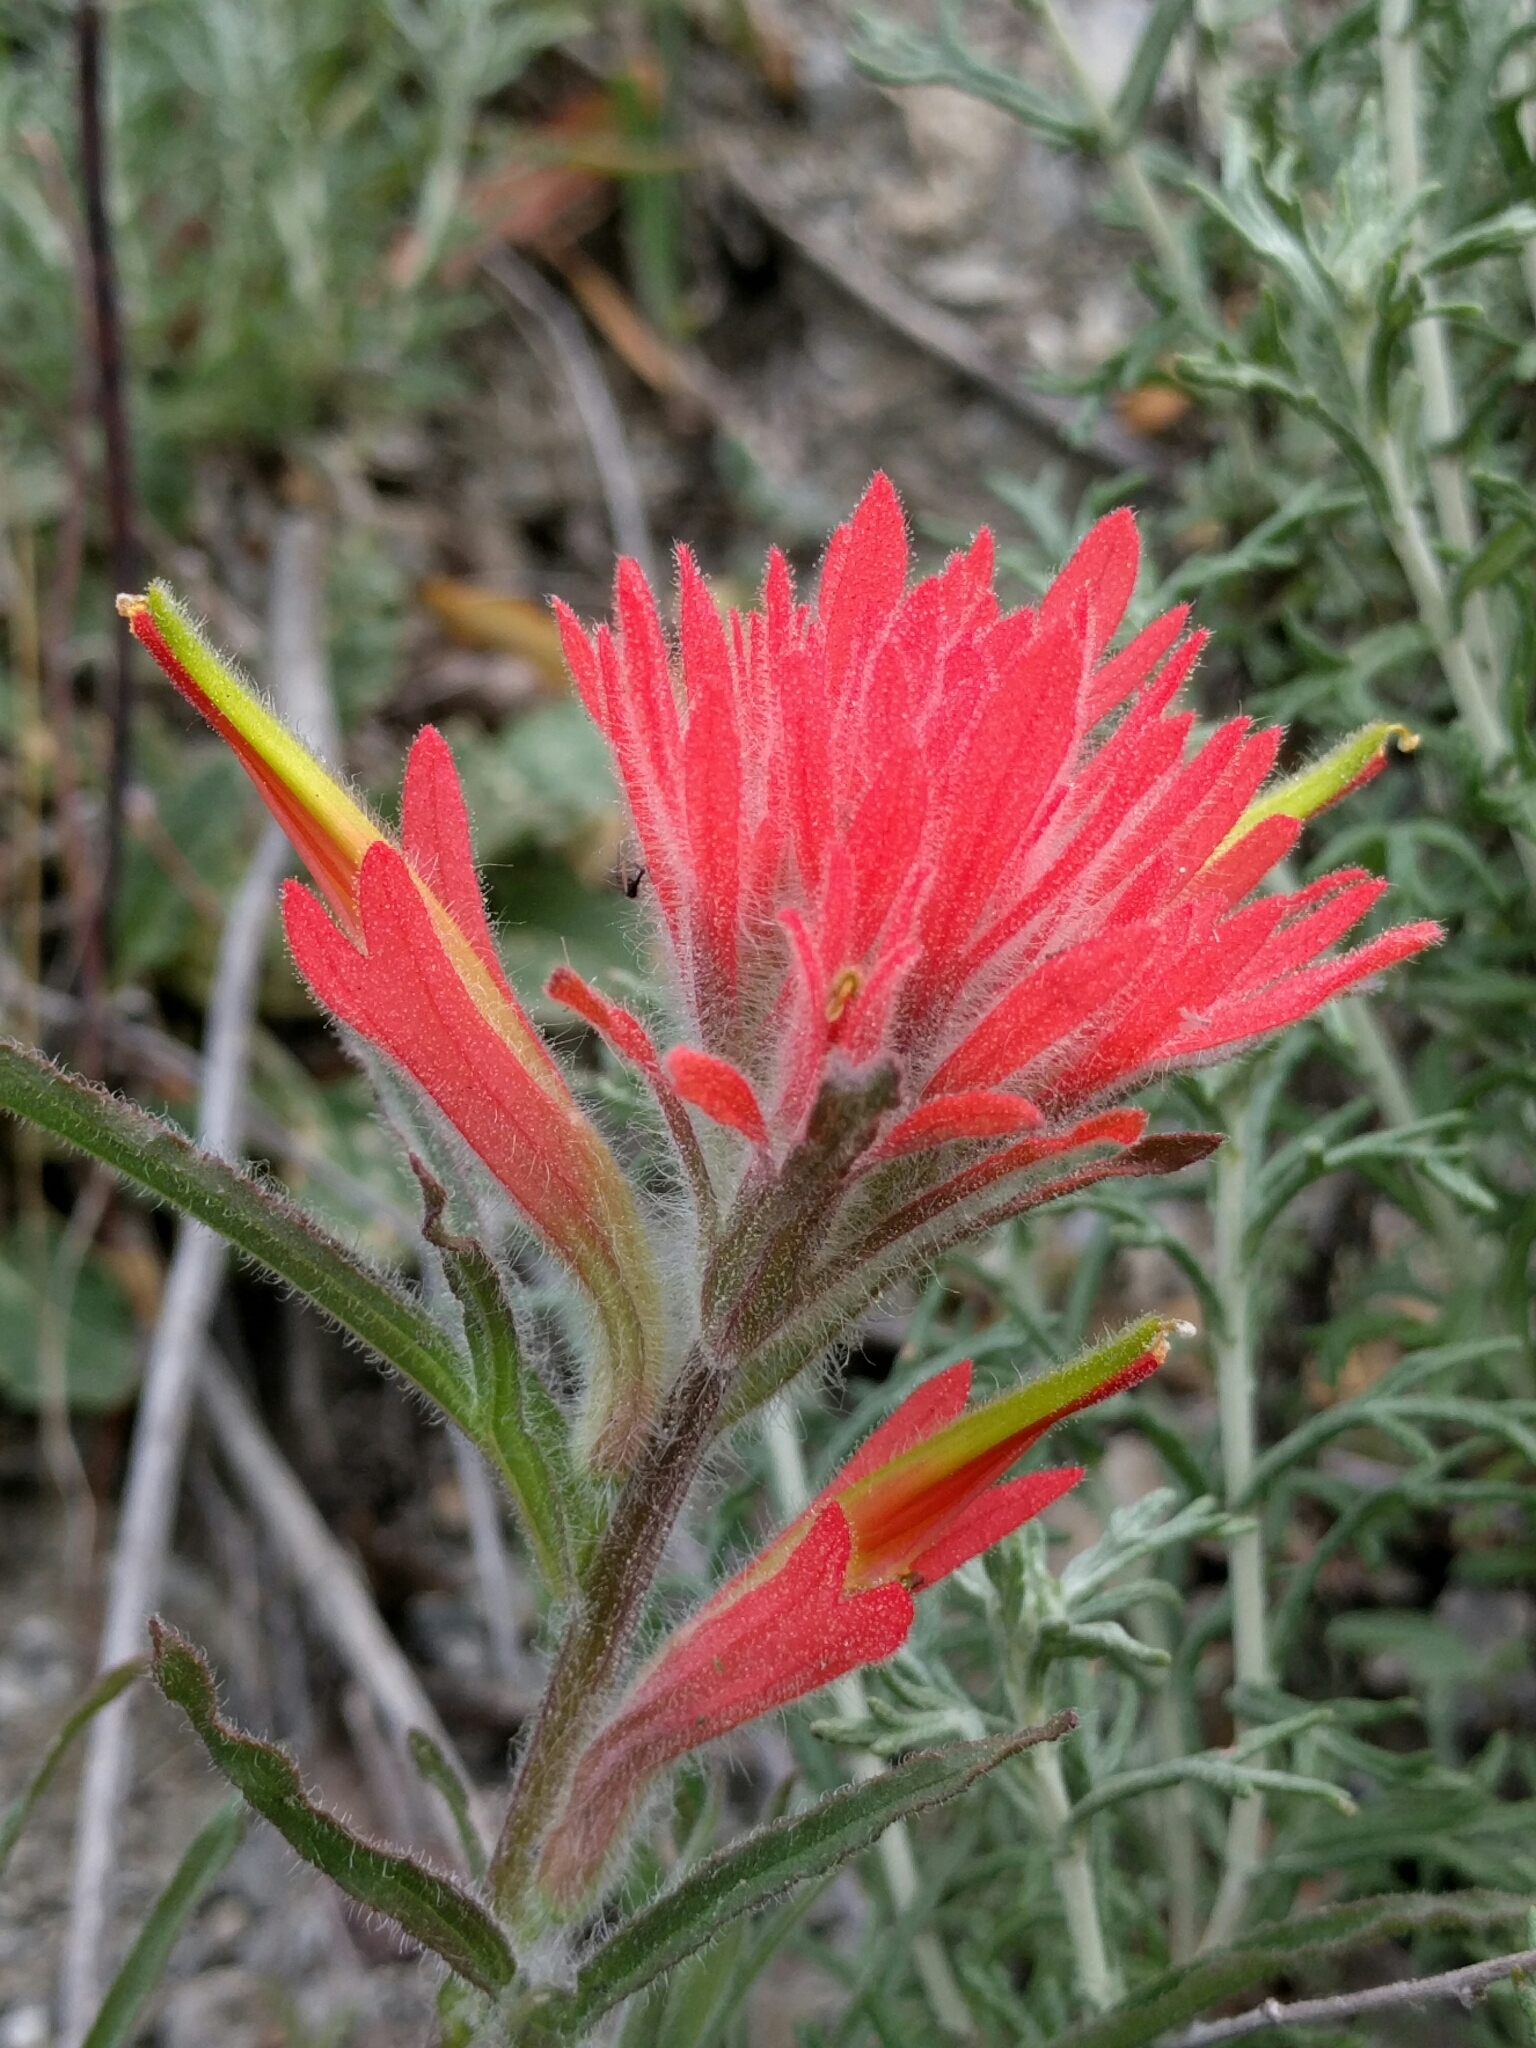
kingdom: Plantae
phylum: Tracheophyta
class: Magnoliopsida
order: Lamiales
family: Orobanchaceae
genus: Castilleja
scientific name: Castilleja affinis
